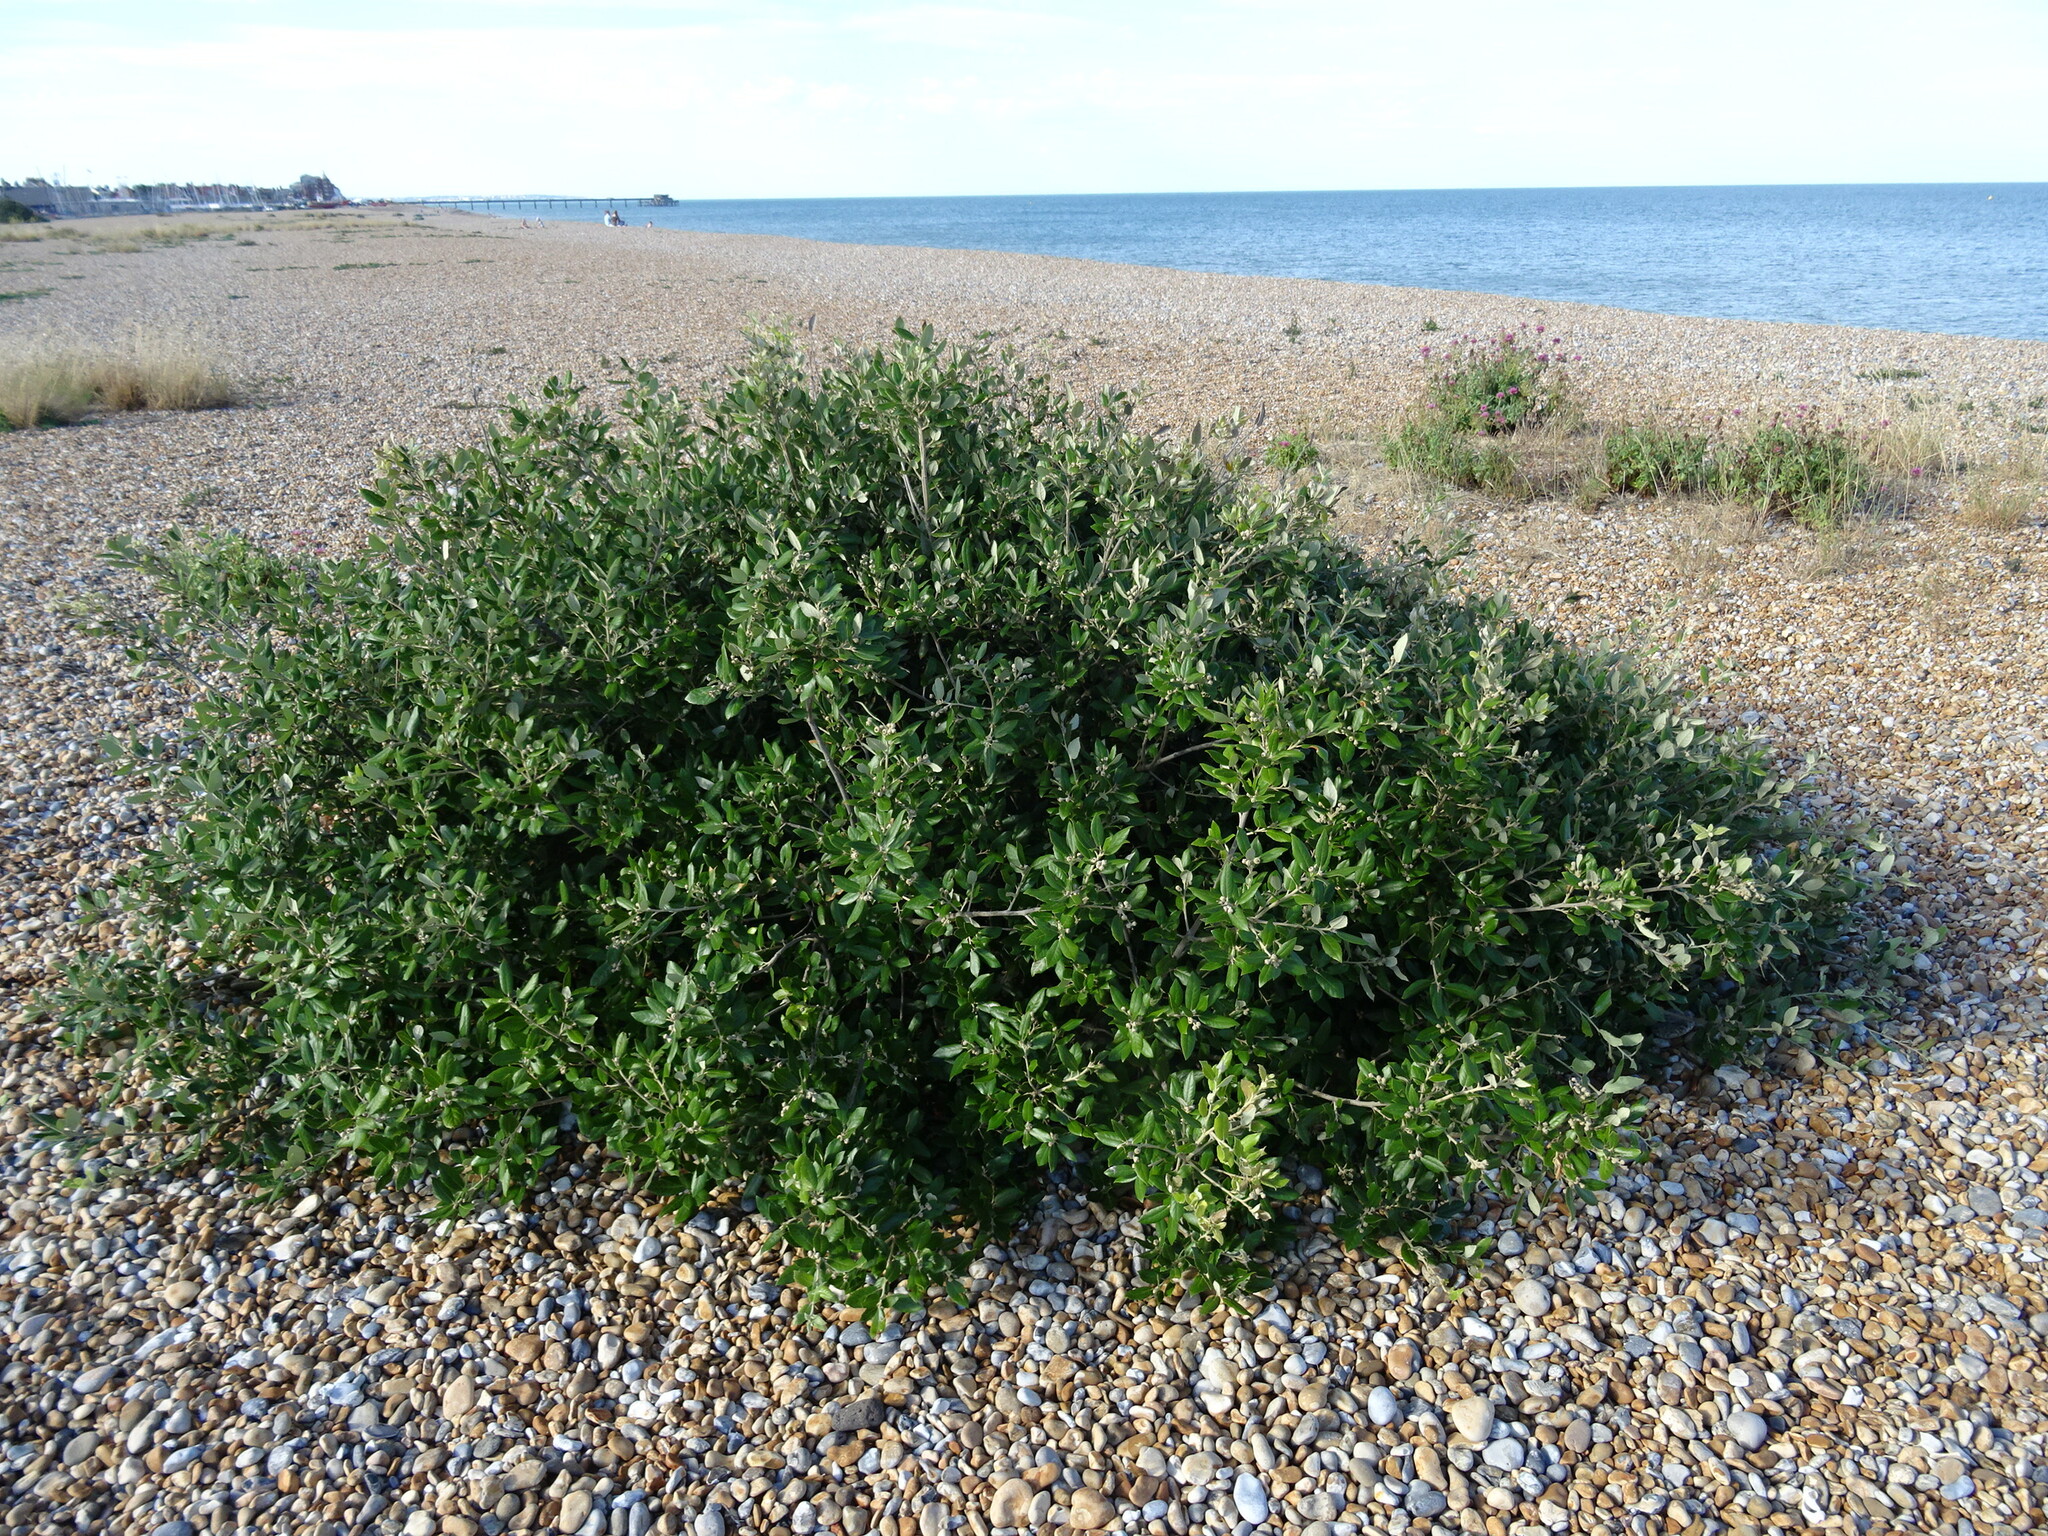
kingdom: Plantae
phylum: Tracheophyta
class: Magnoliopsida
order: Fagales
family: Fagaceae
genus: Quercus
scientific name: Quercus ilex
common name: Evergreen oak
